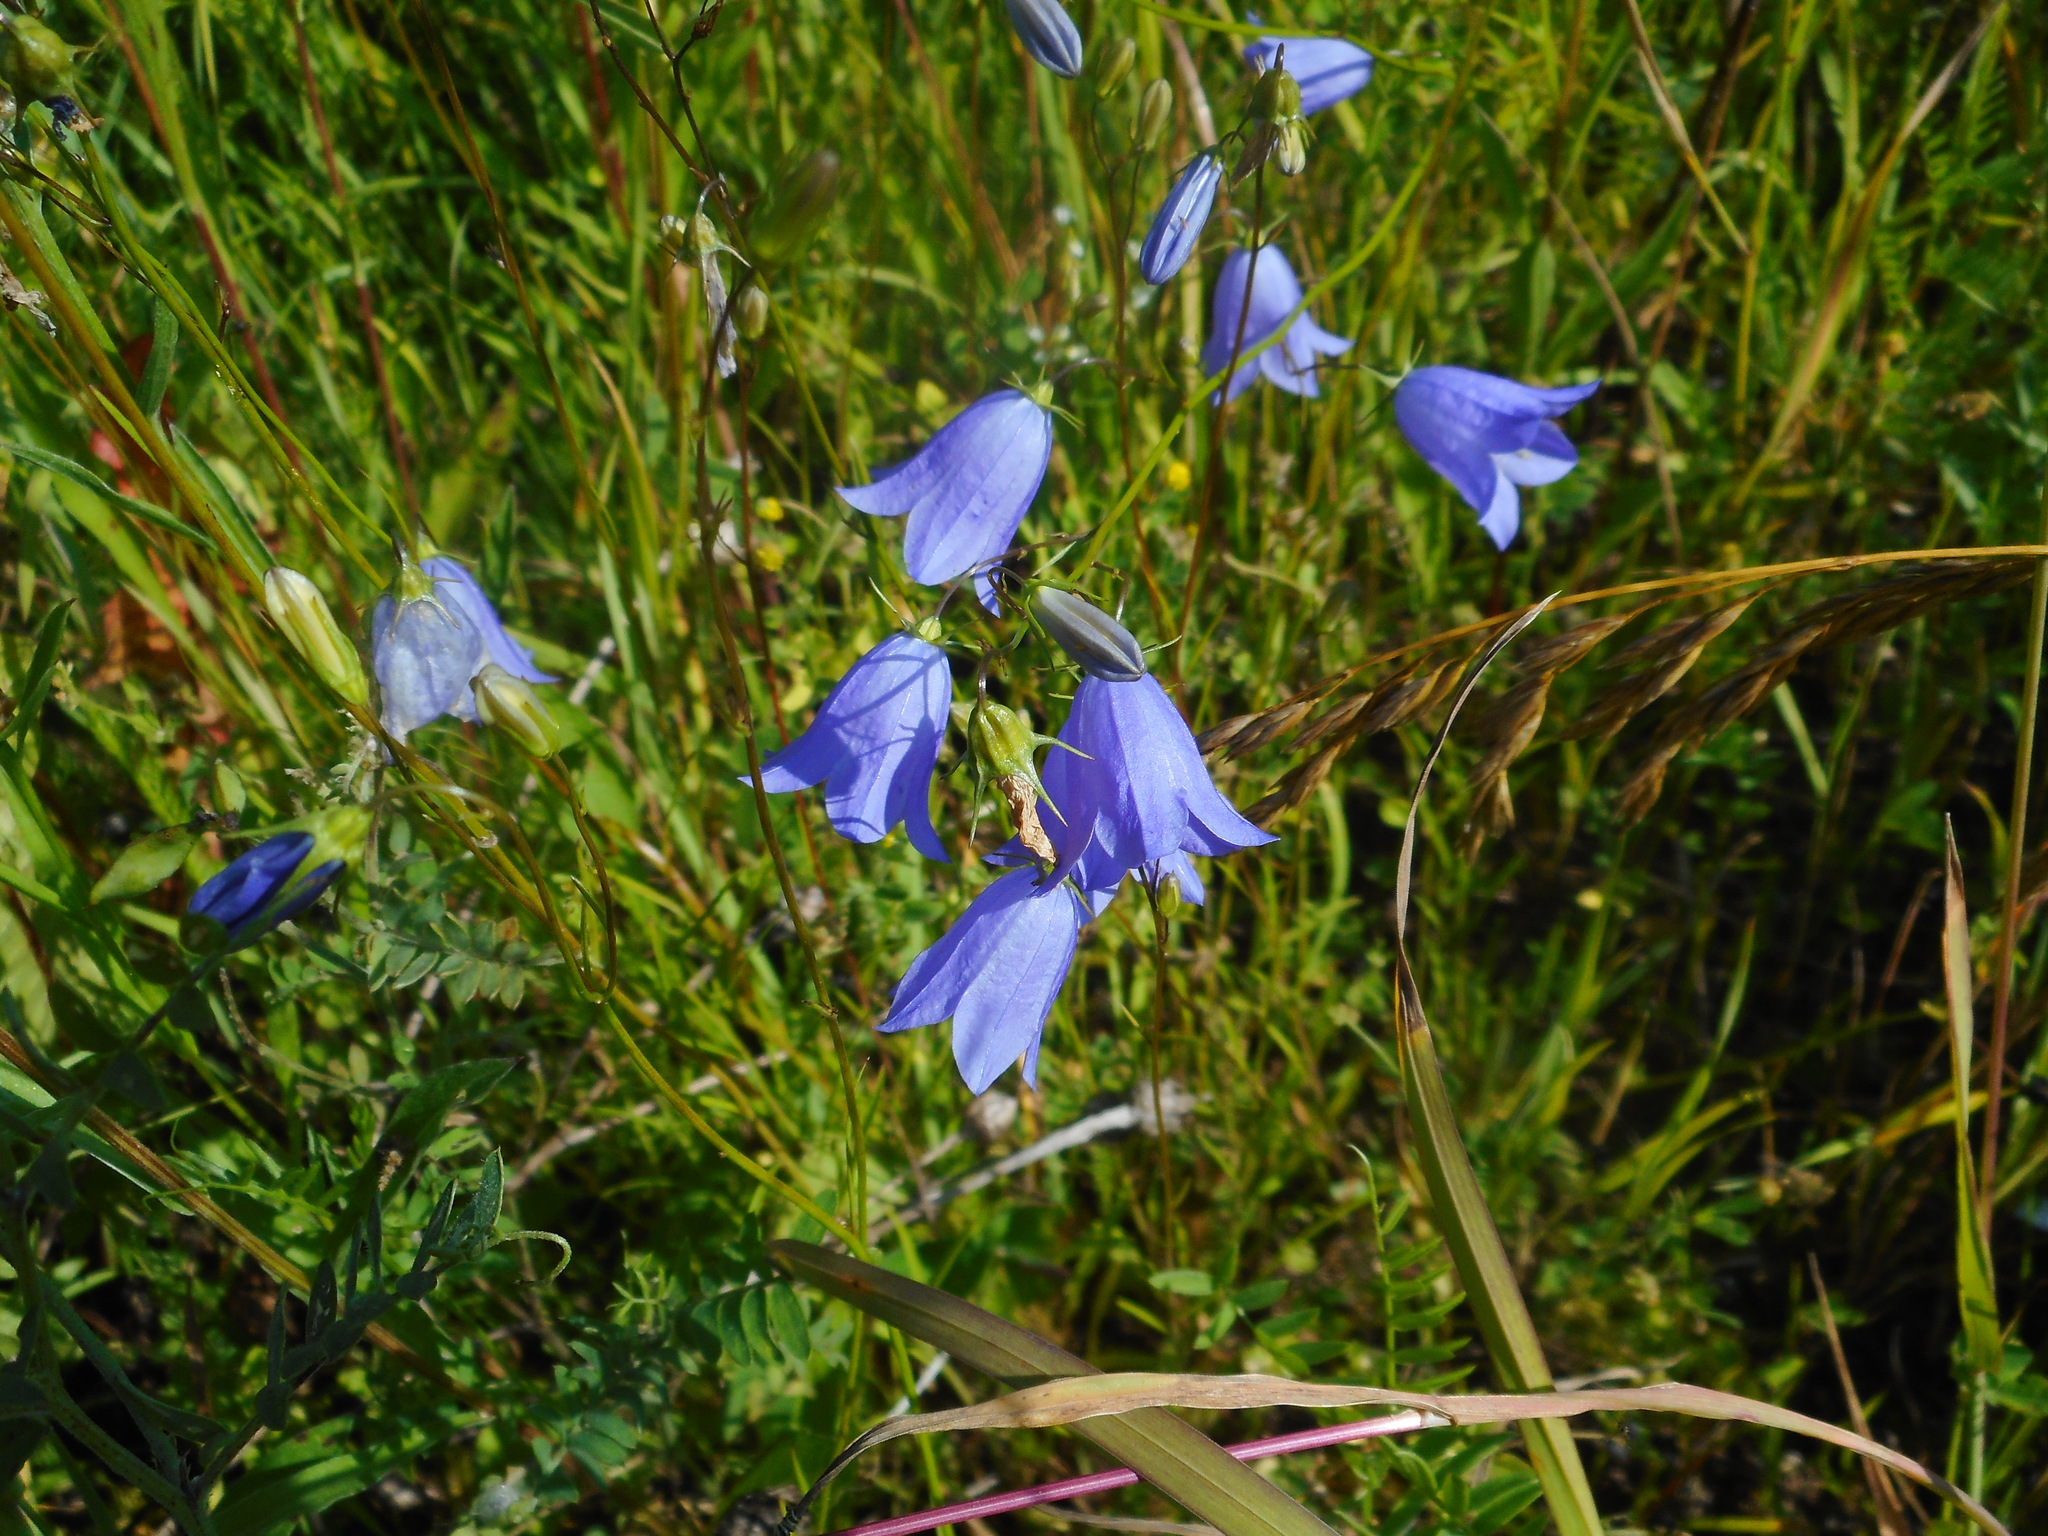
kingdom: Plantae
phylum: Tracheophyta
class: Magnoliopsida
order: Asterales
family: Campanulaceae
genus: Campanula
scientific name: Campanula rotundifolia
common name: Harebell
